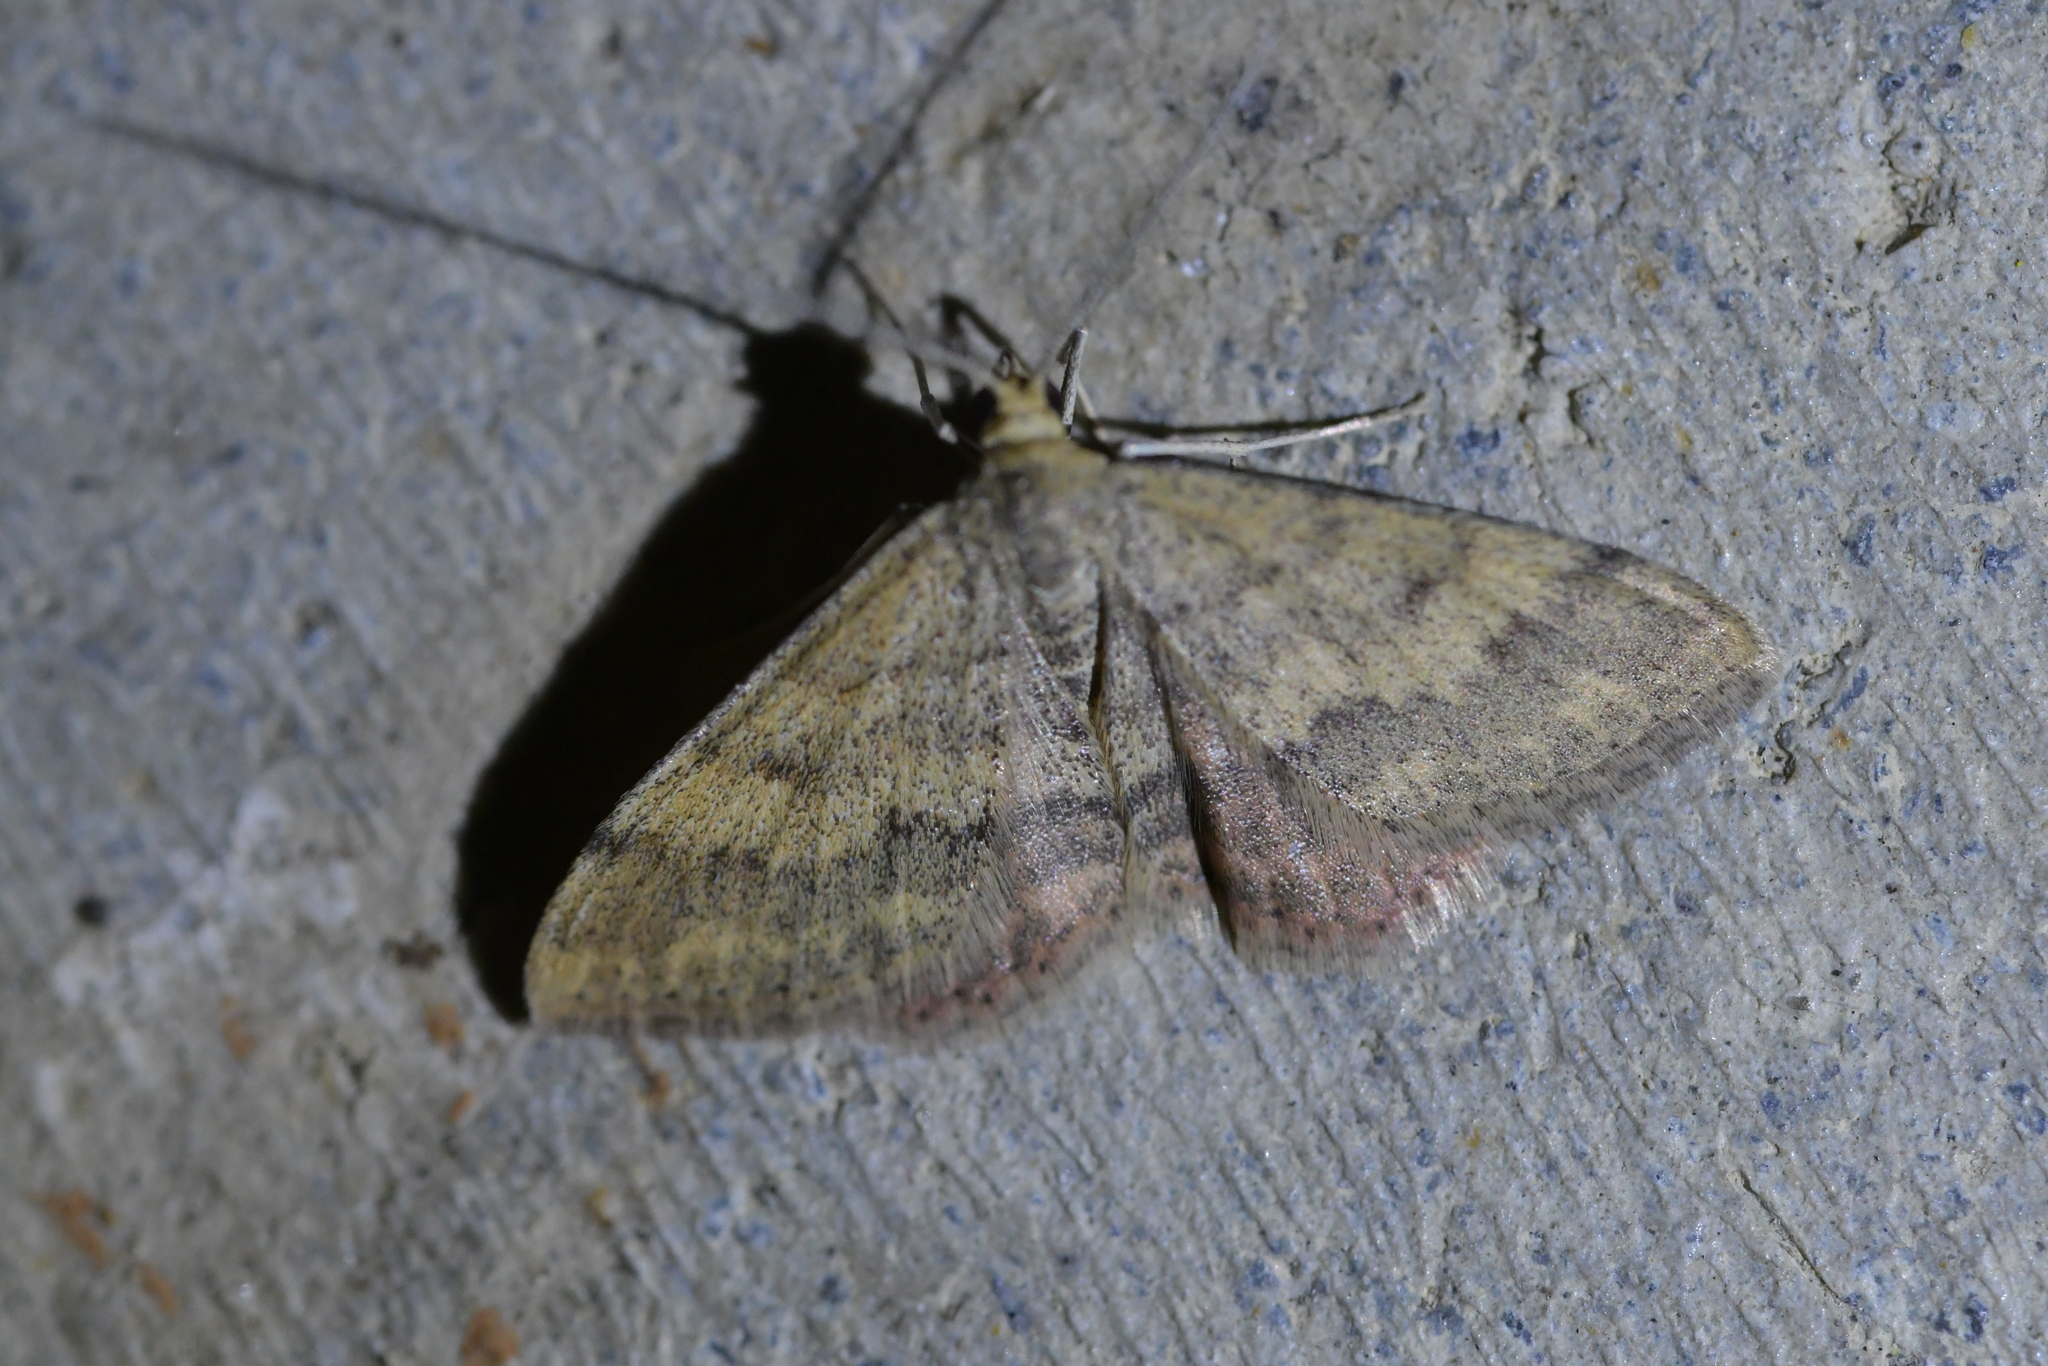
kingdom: Animalia
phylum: Arthropoda
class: Insecta
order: Lepidoptera
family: Geometridae
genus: Scopula
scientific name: Scopula rubraria
